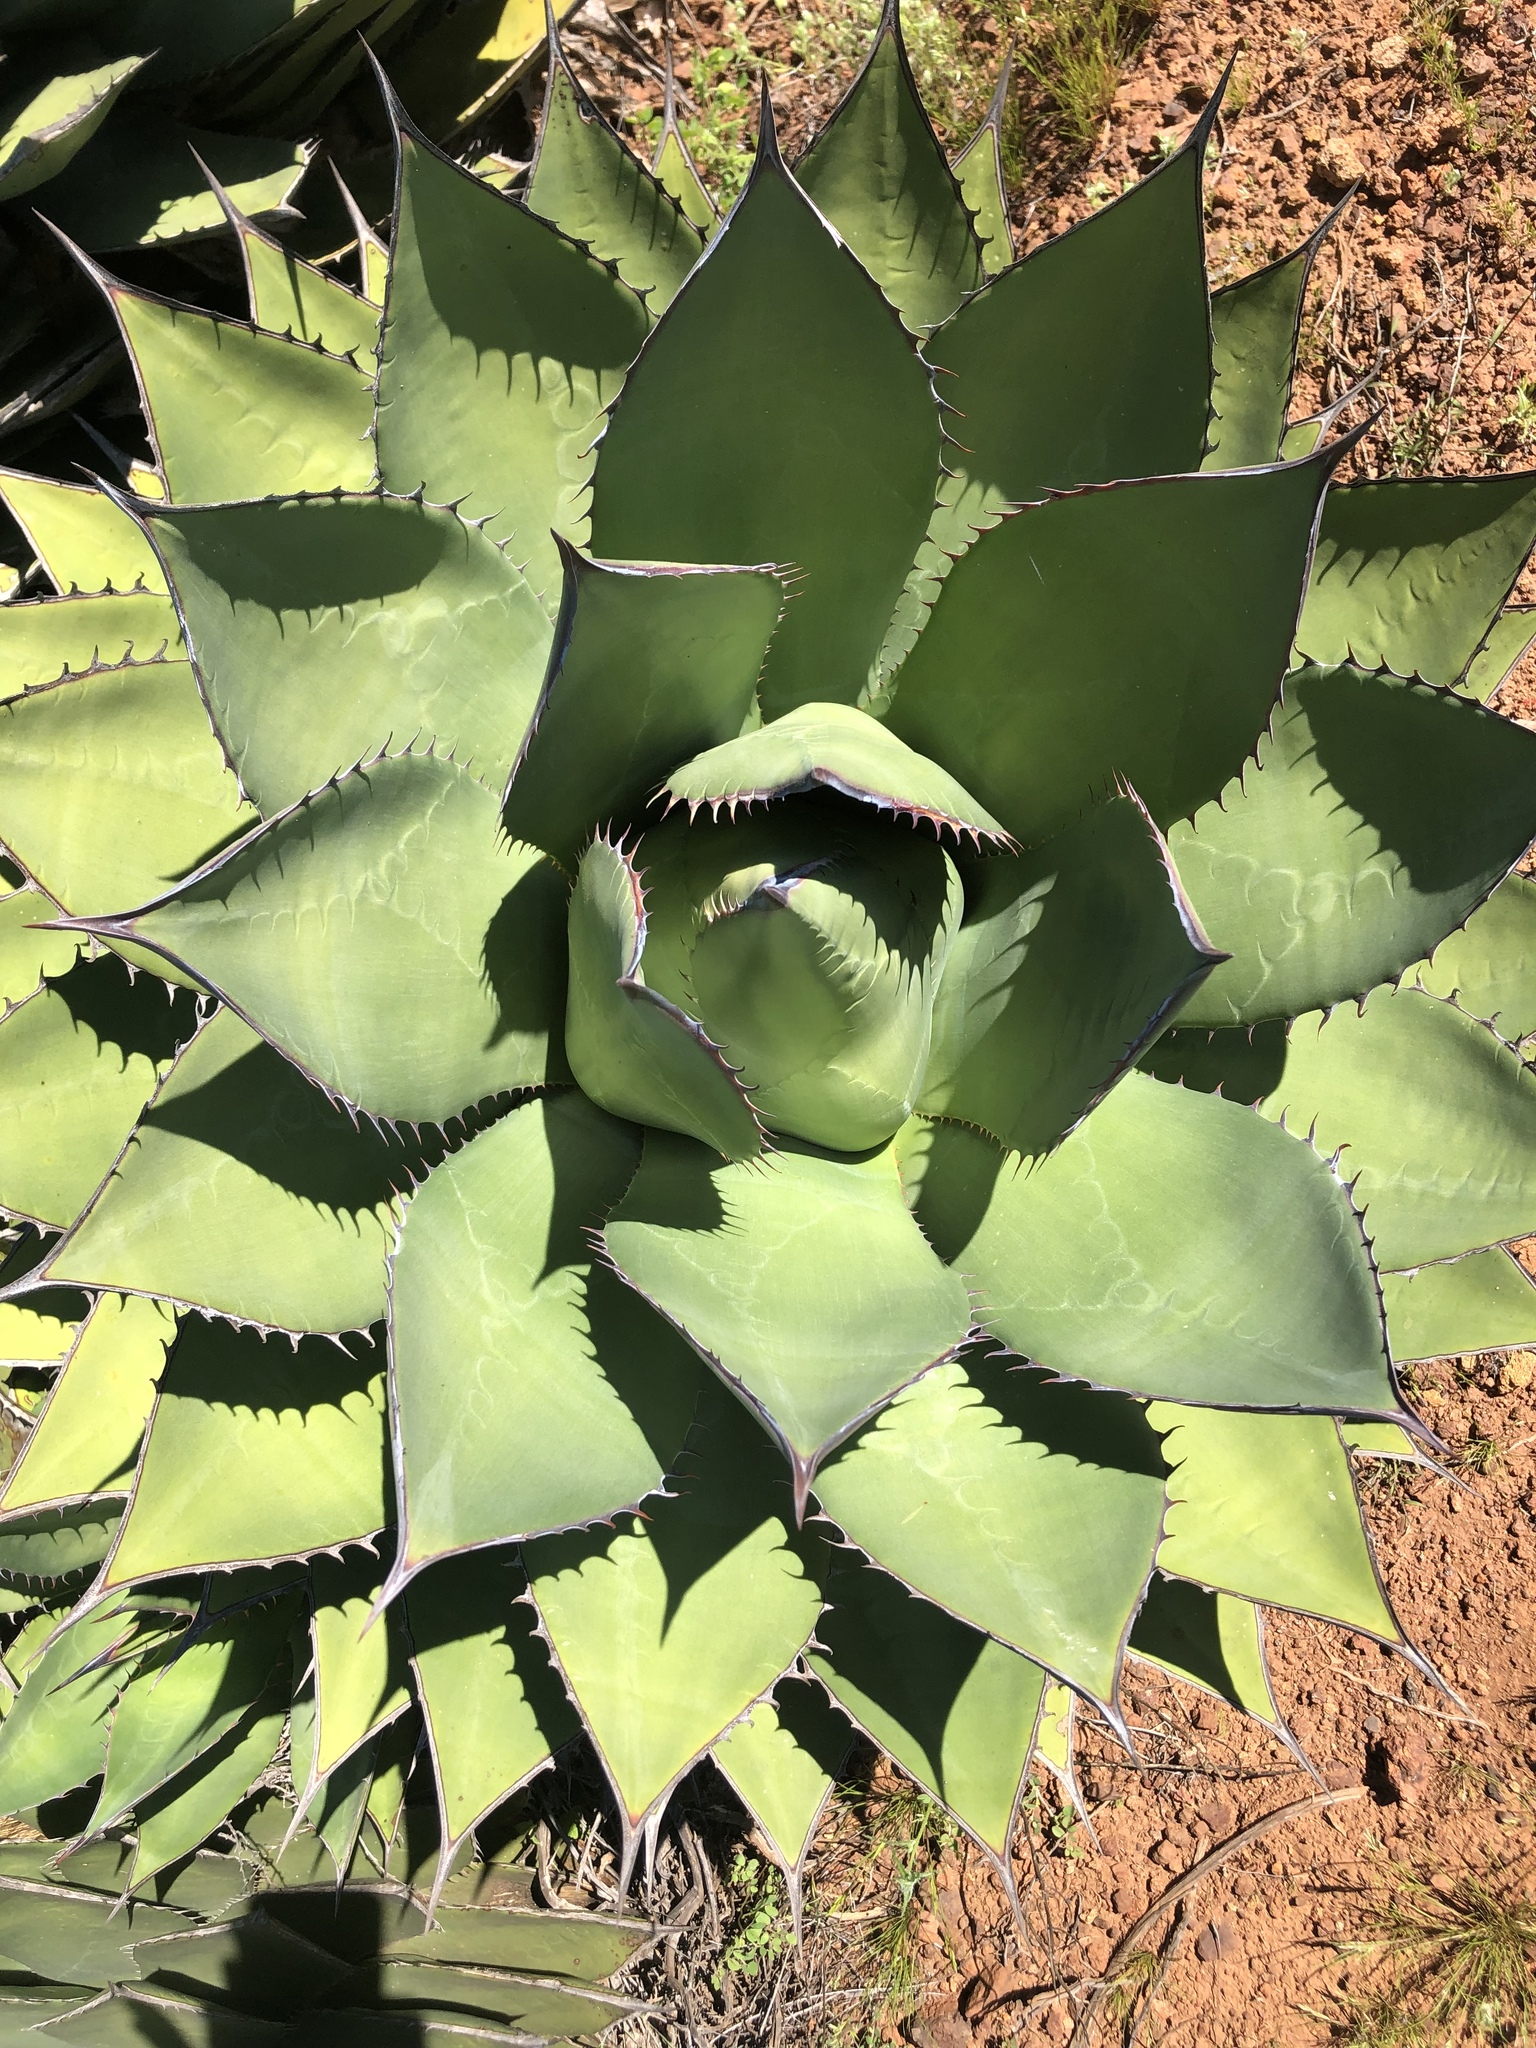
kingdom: Plantae
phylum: Tracheophyta
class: Liliopsida
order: Asparagales
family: Asparagaceae
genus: Agave
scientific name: Agave shawii
